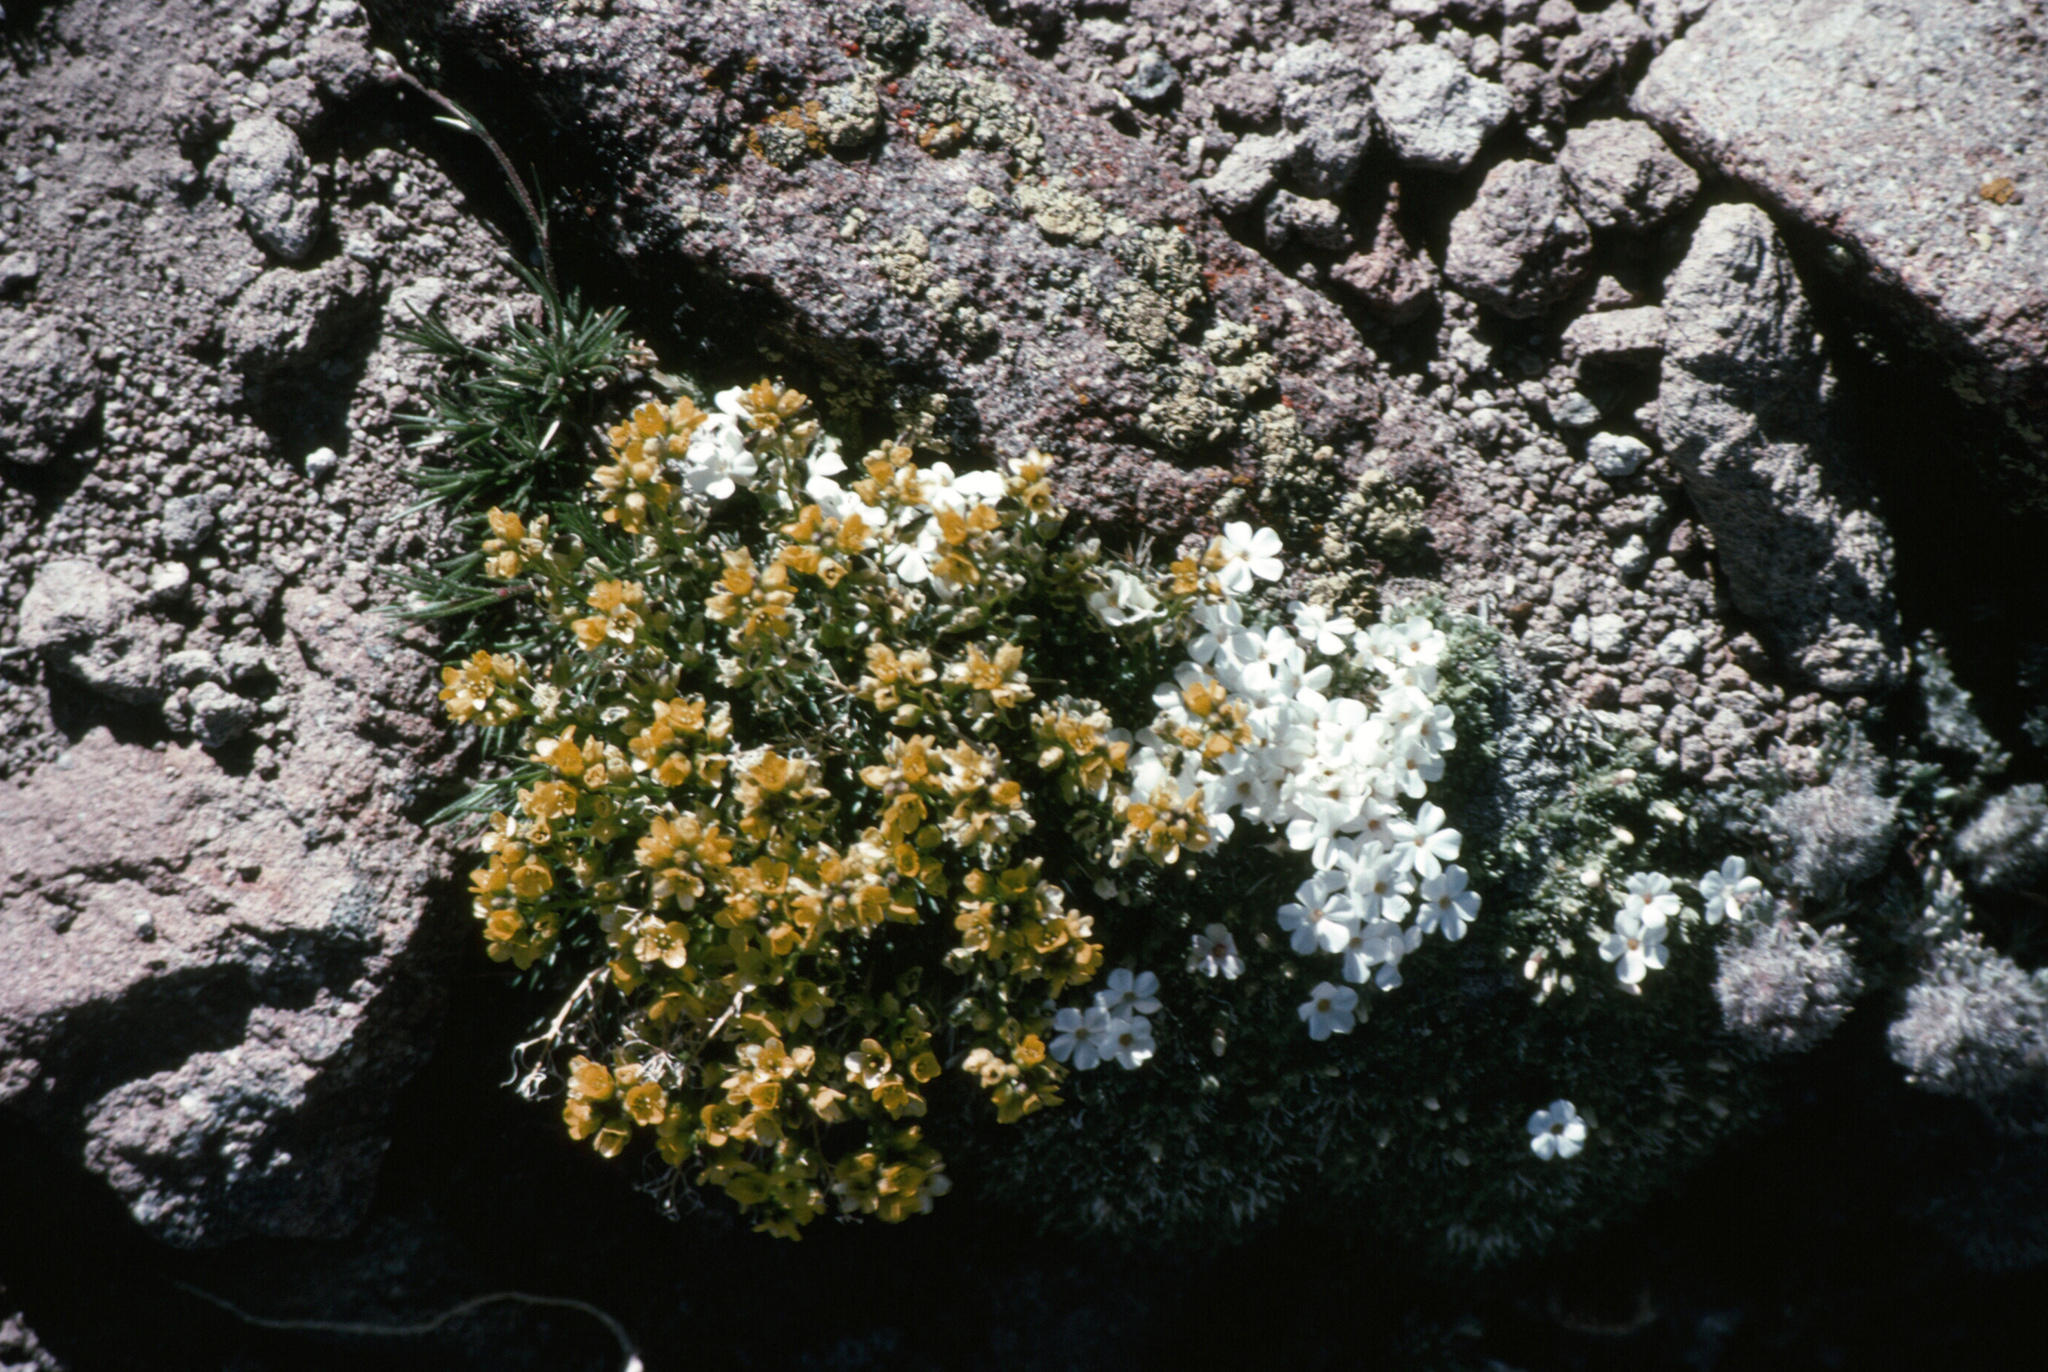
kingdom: Plantae
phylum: Tracheophyta
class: Magnoliopsida
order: Brassicales
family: Brassicaceae
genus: Draba
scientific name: Draba asterophora
